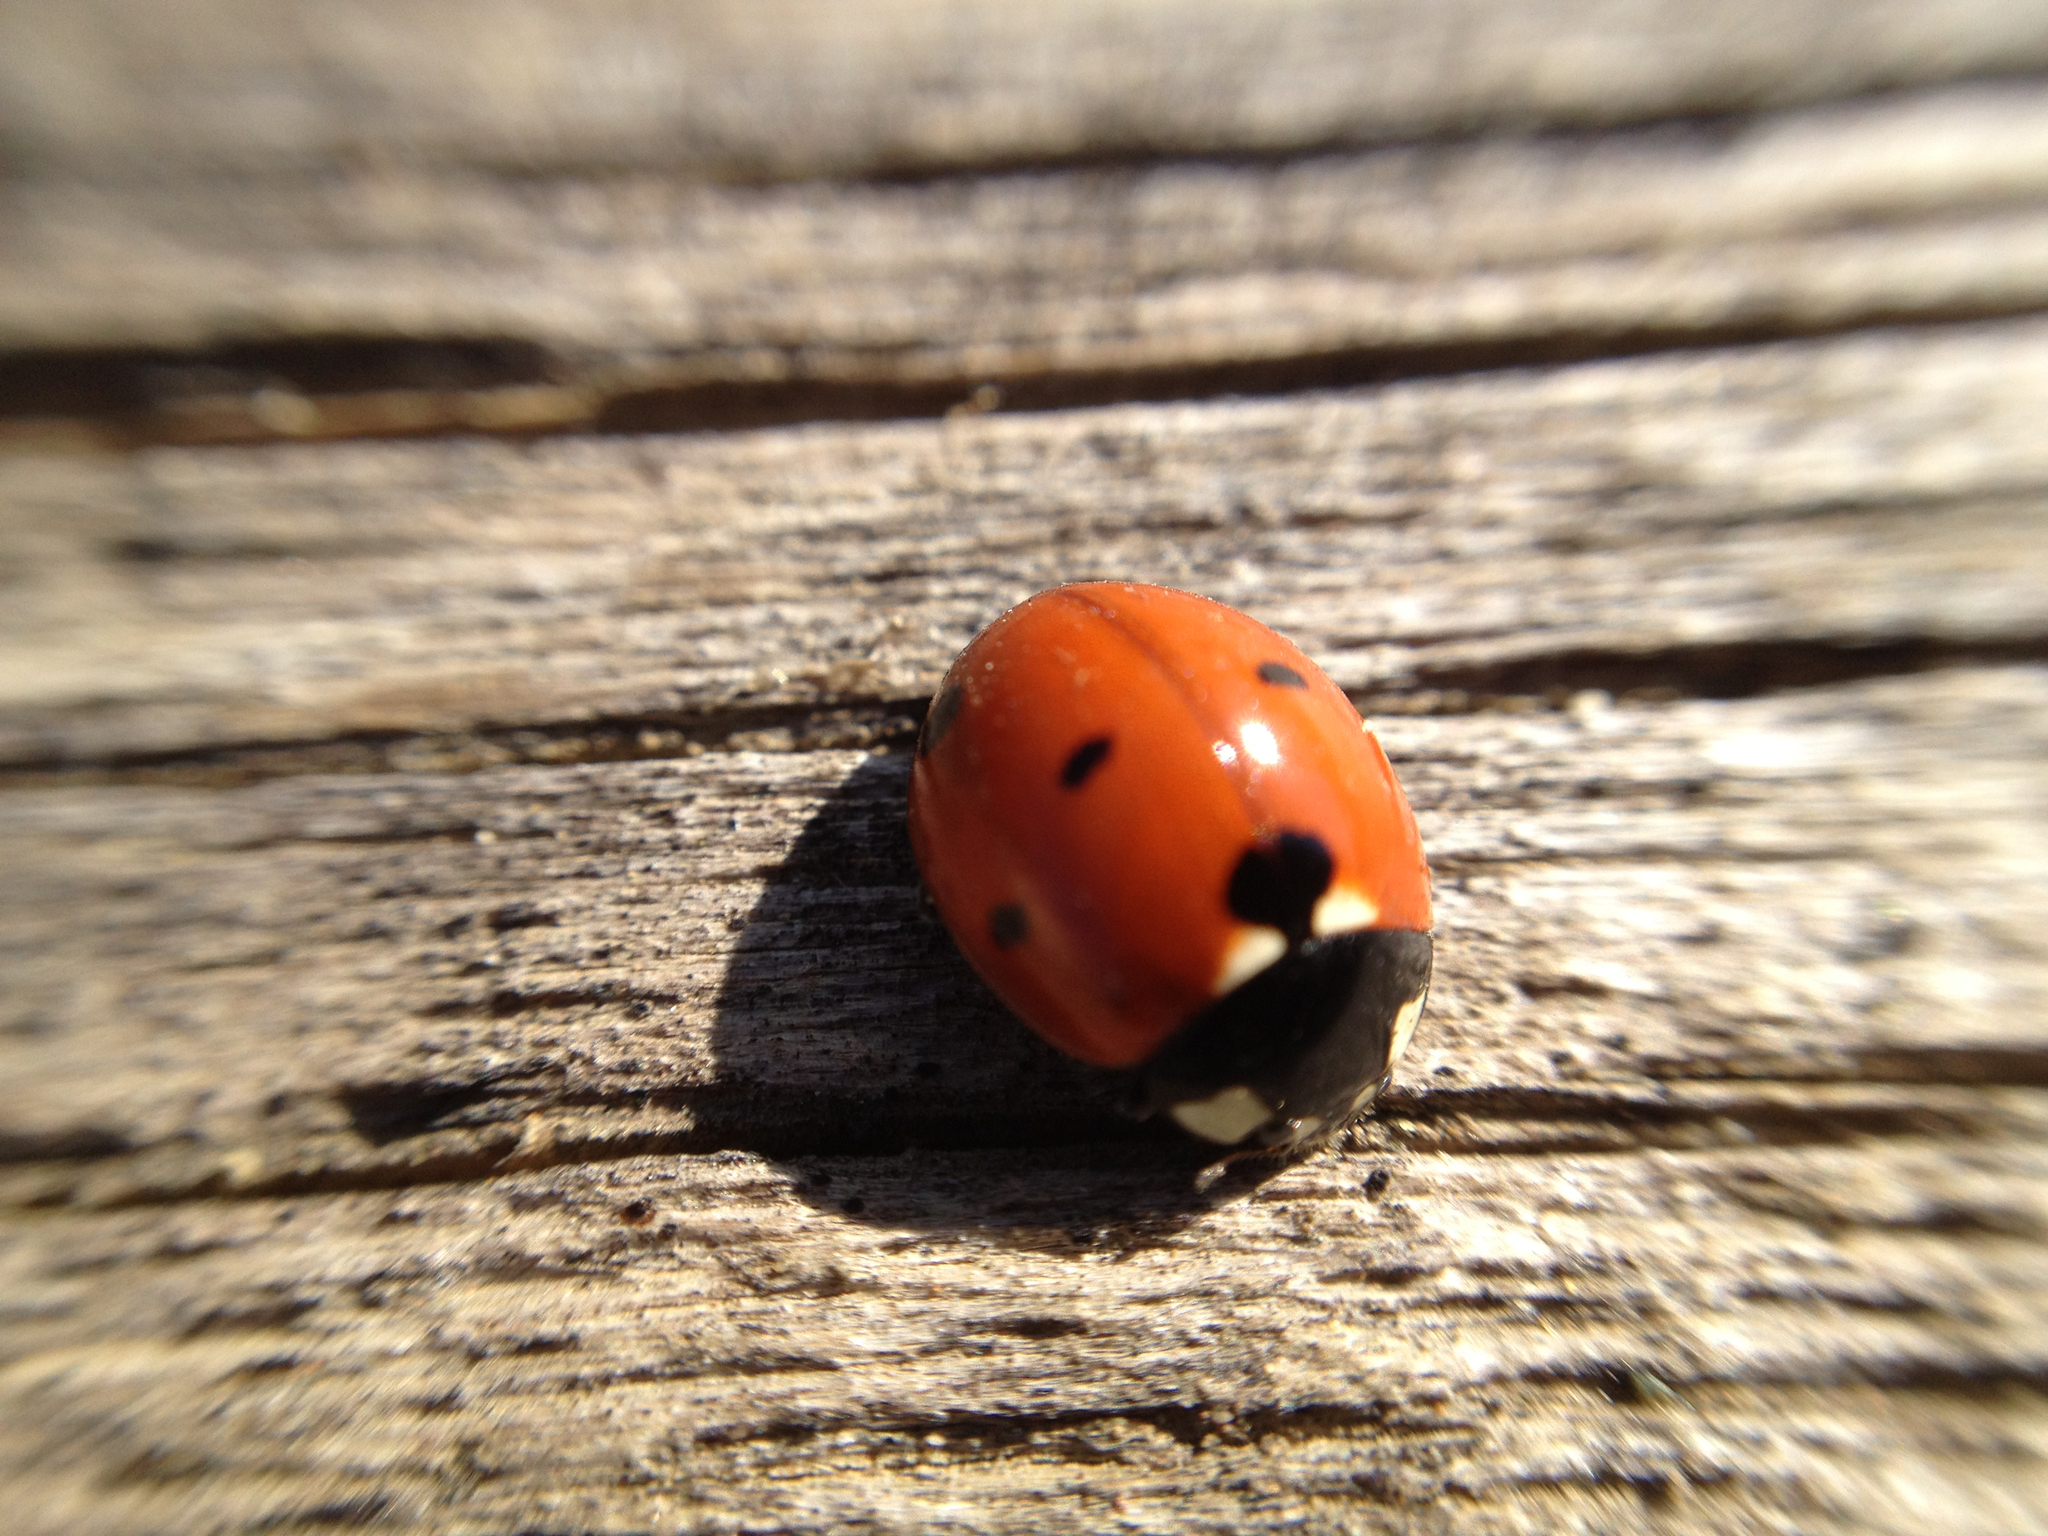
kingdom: Animalia
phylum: Arthropoda
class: Insecta
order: Coleoptera
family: Coccinellidae
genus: Coccinella
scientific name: Coccinella septempunctata
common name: Sevenspotted lady beetle
